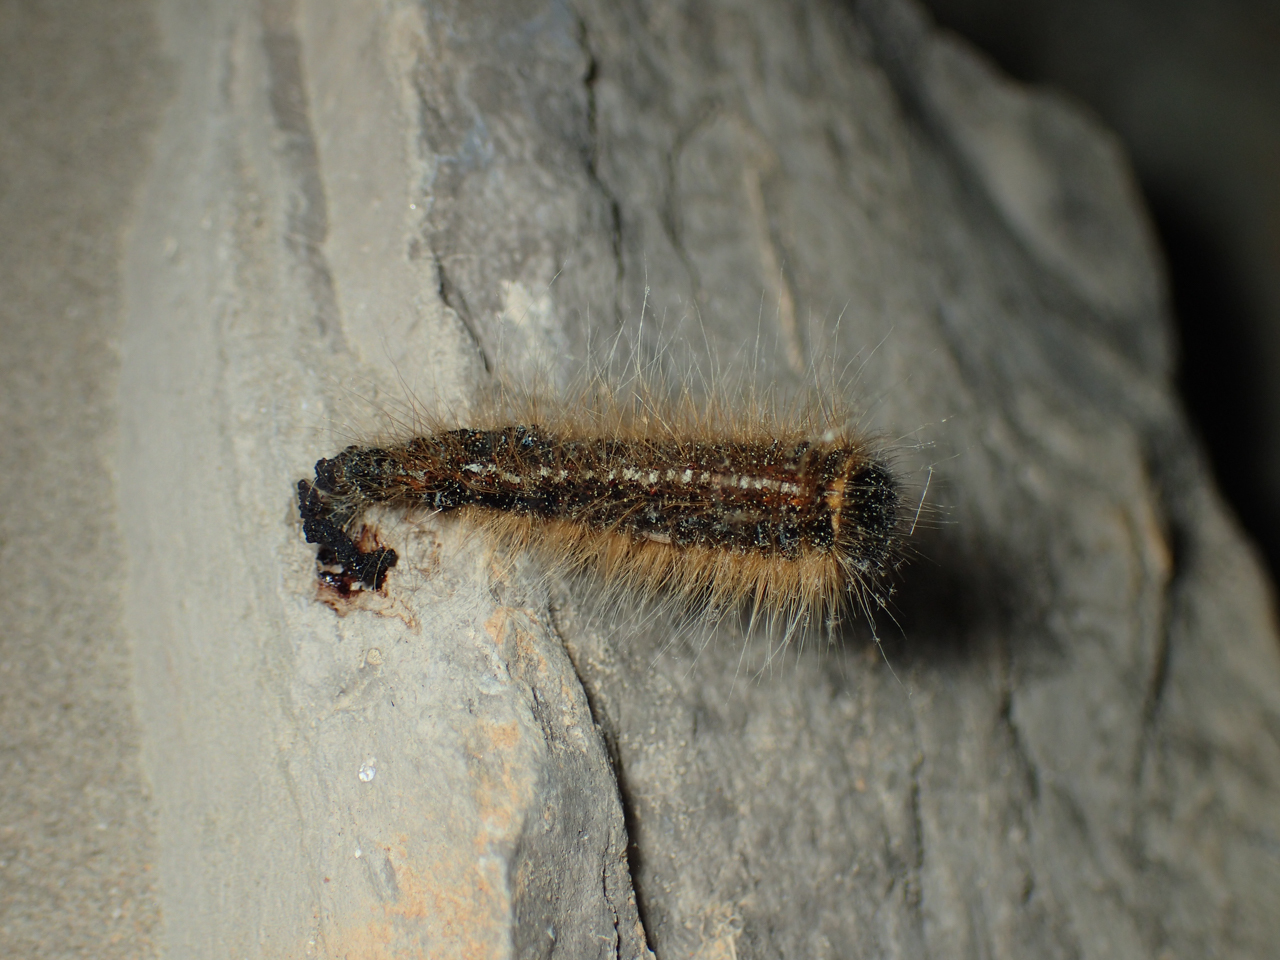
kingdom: Animalia
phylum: Arthropoda
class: Insecta
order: Lepidoptera
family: Lasiocampidae
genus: Malacosoma
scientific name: Malacosoma americana
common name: Eastern tent caterpillar moth
